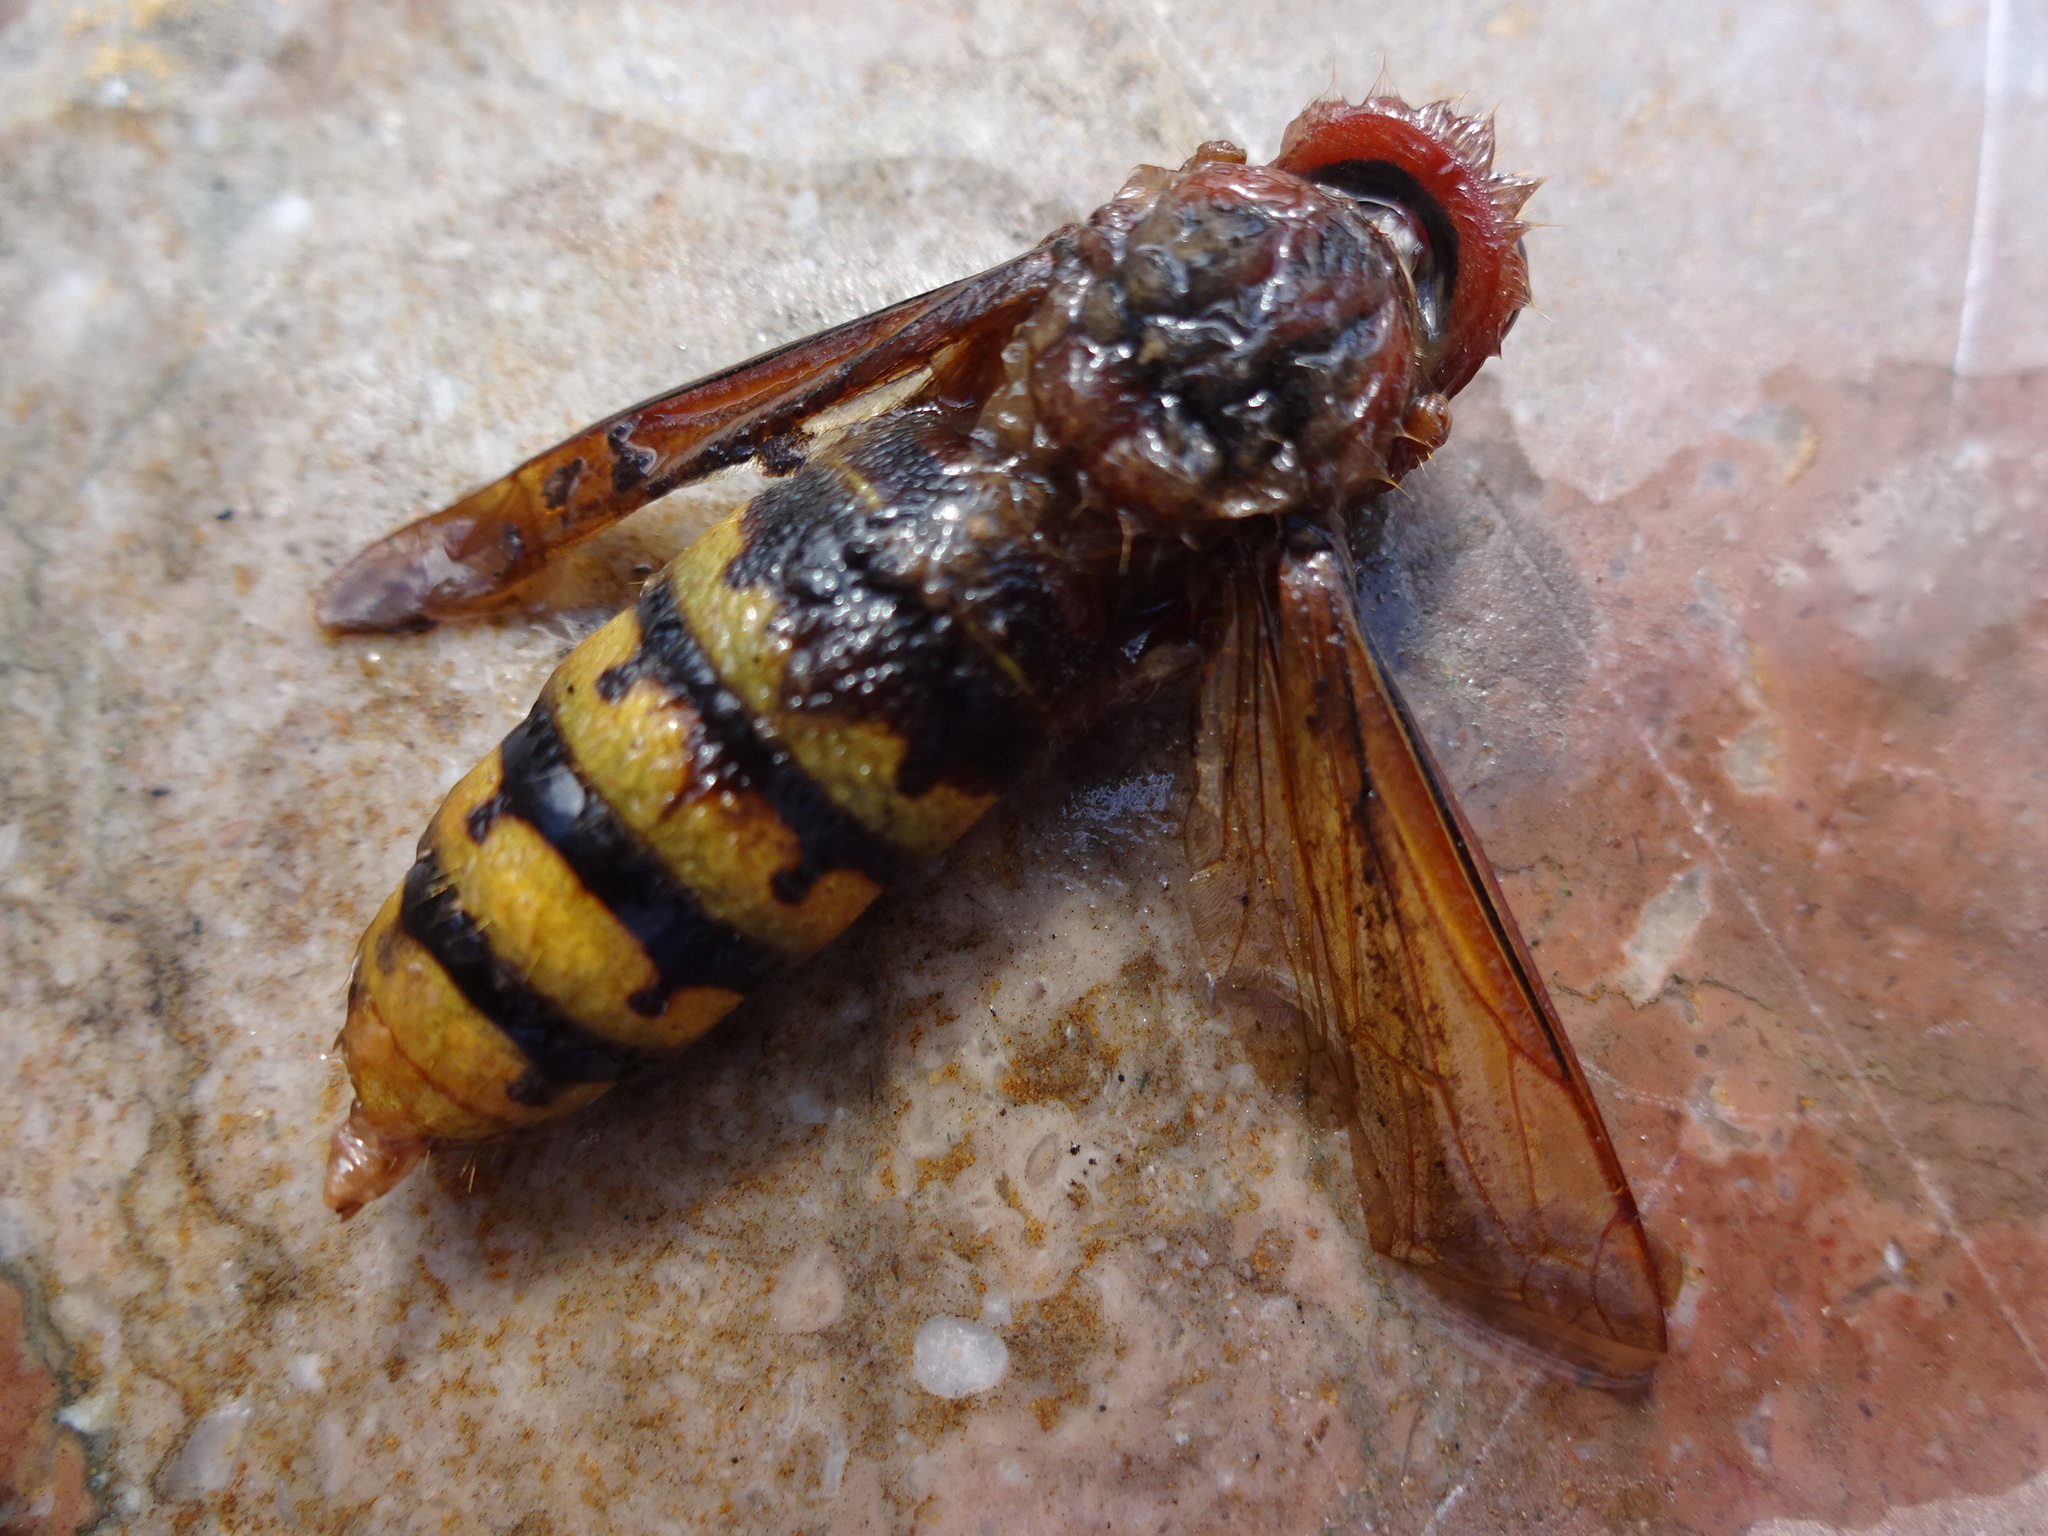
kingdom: Animalia
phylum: Arthropoda
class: Insecta
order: Hymenoptera
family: Vespidae
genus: Vespa
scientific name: Vespa crabro
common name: Hornet
